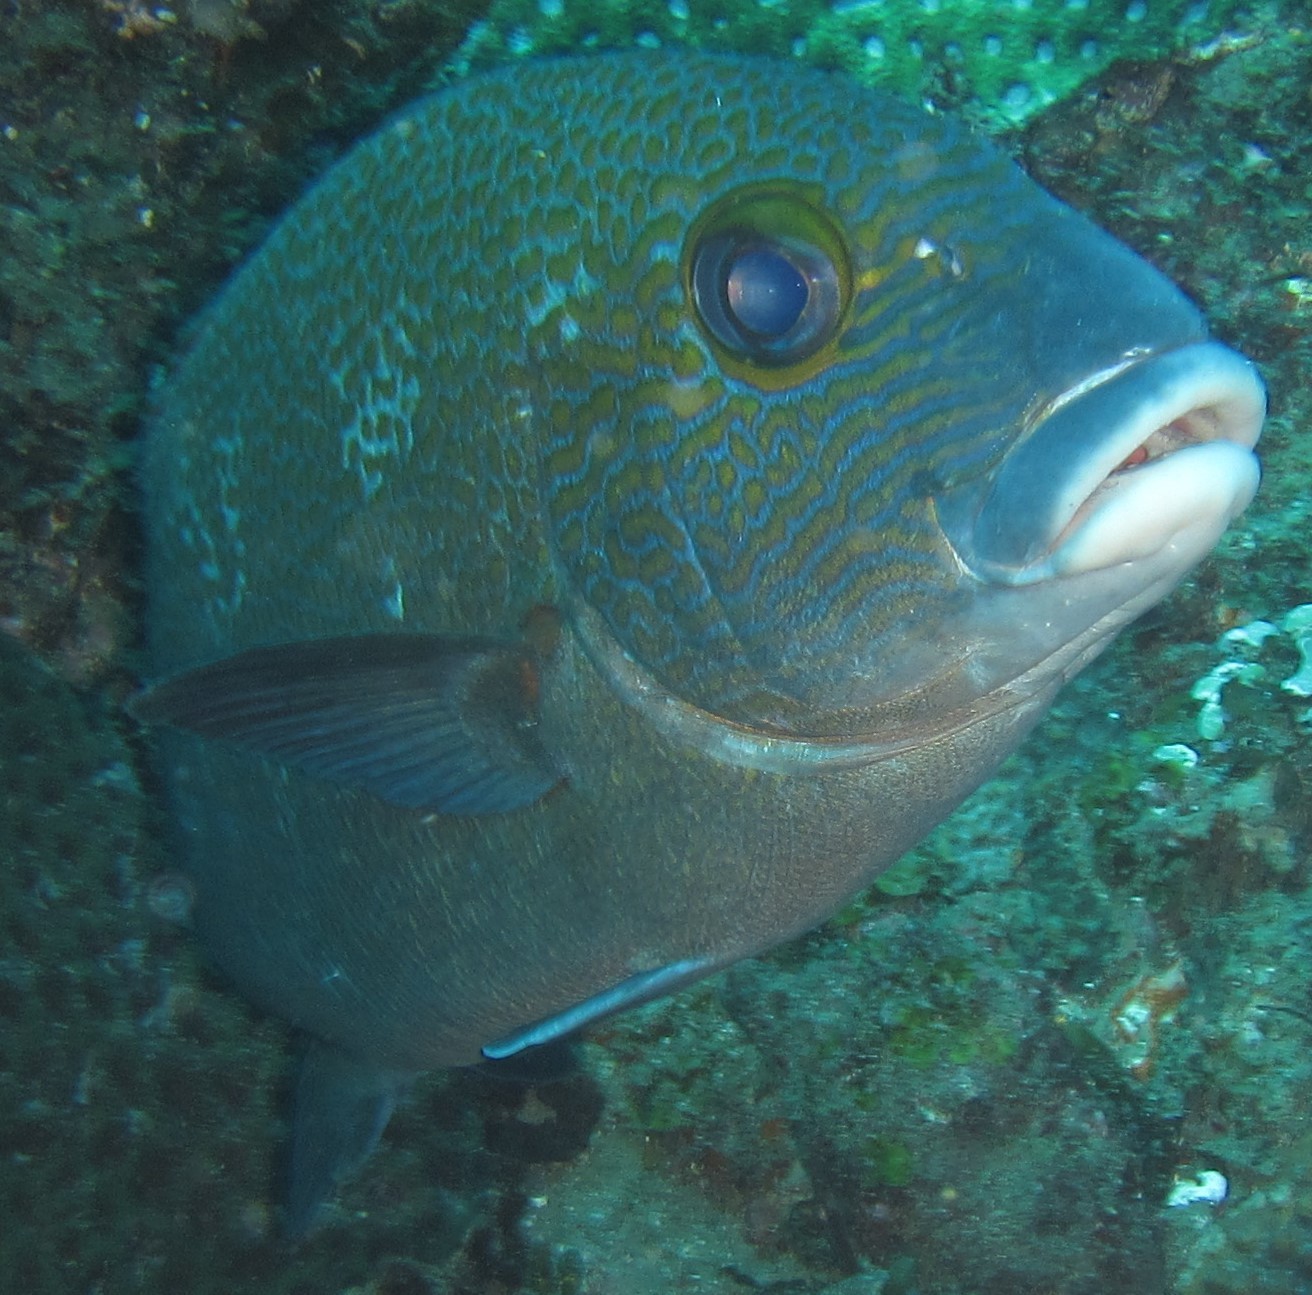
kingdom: Animalia
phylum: Chordata
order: Perciformes
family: Haemulidae
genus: Plectorhinchus
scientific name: Plectorhinchus flavomaculatus
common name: Netted sweetlips
